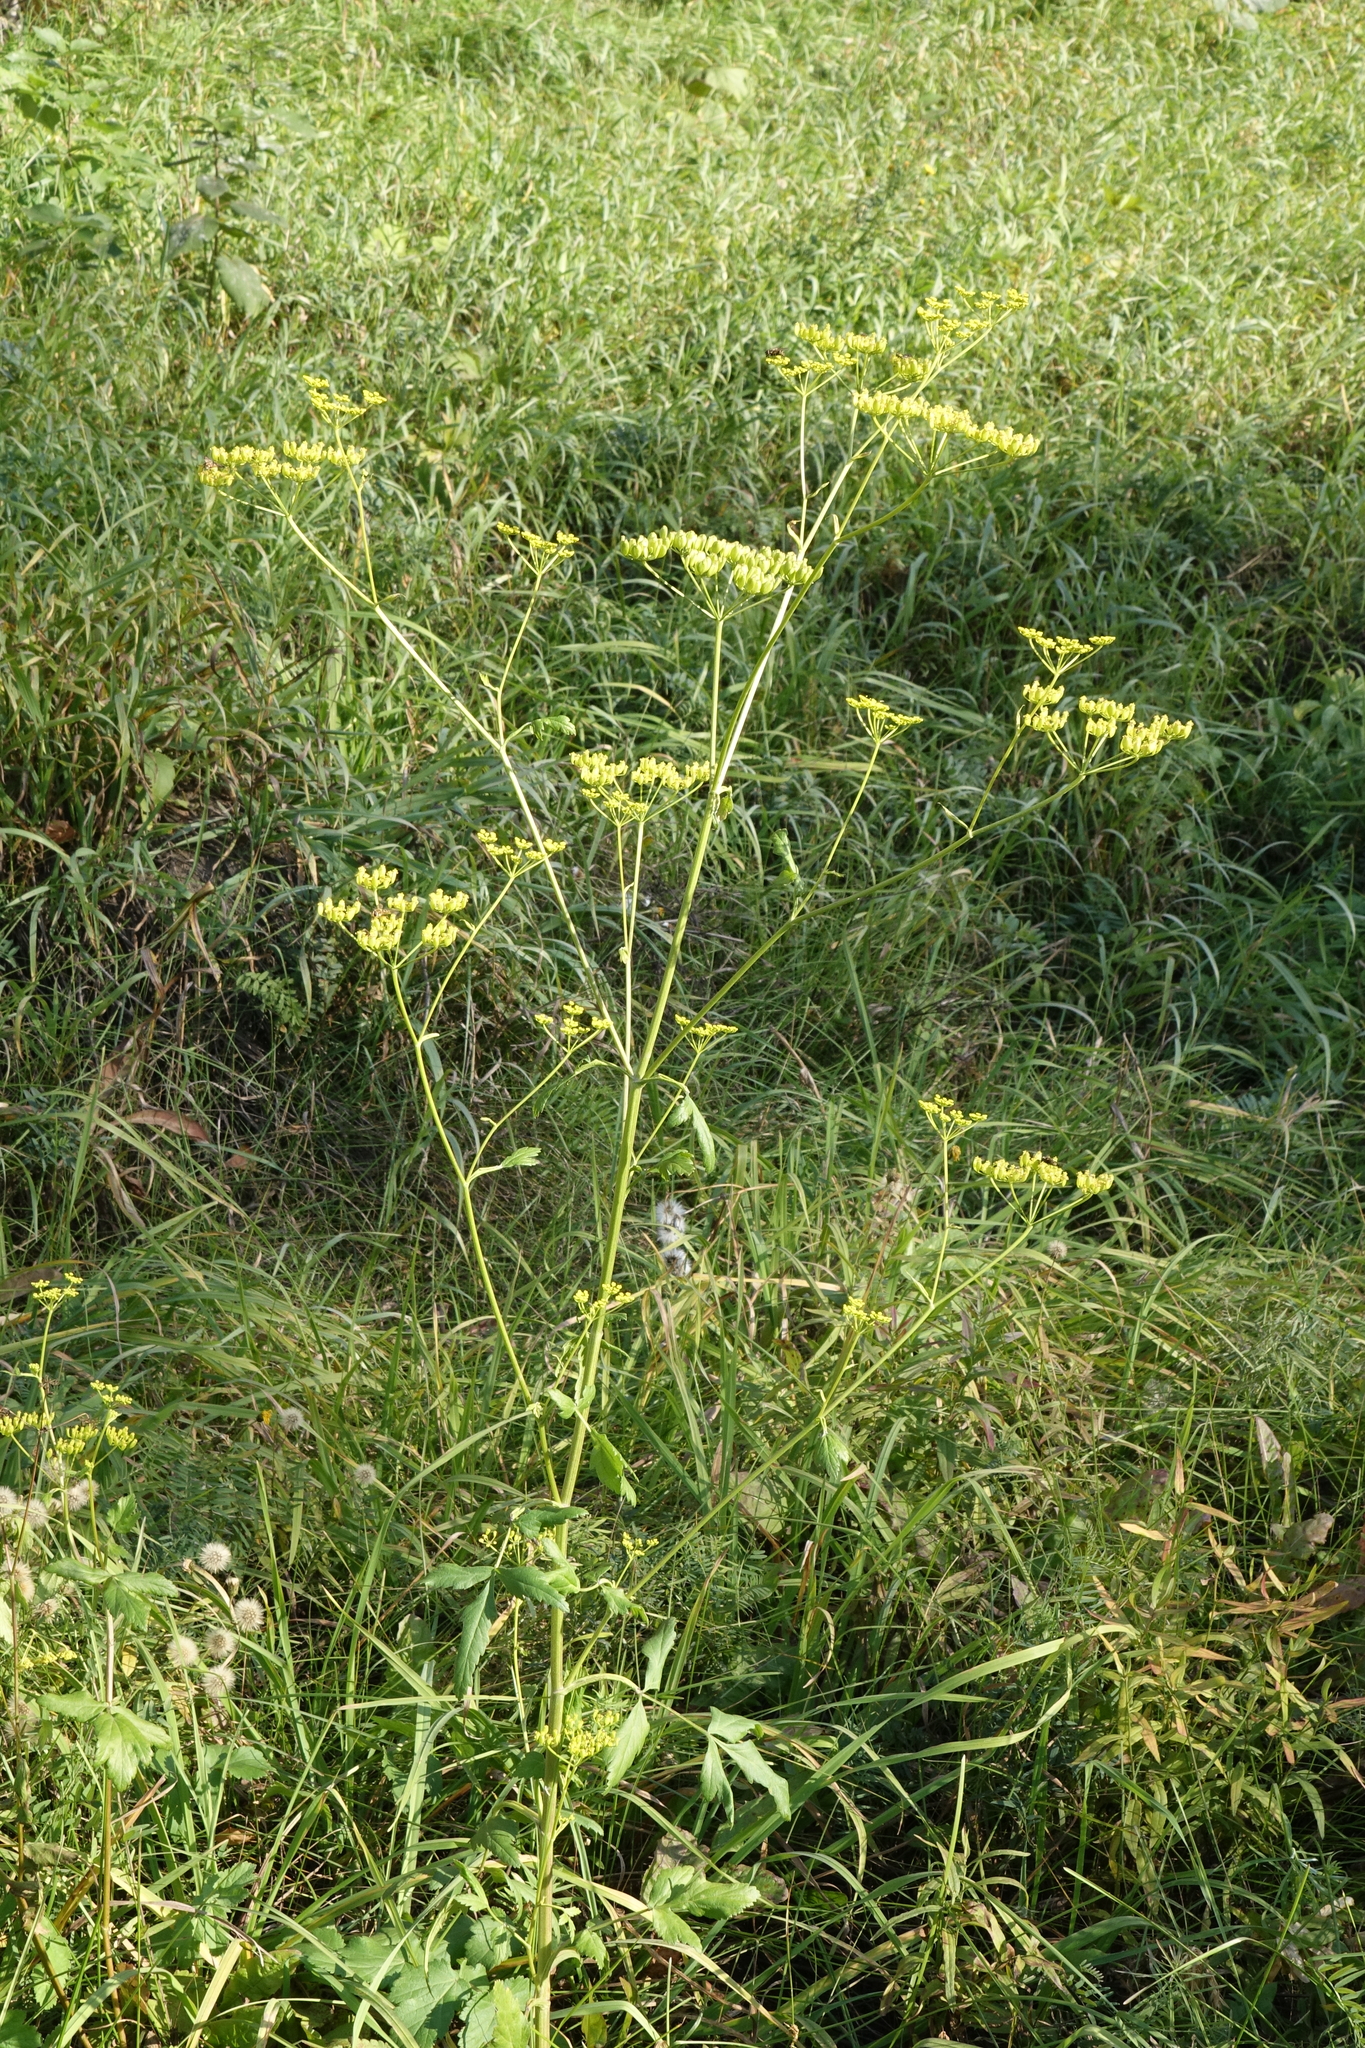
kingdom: Plantae
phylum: Tracheophyta
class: Magnoliopsida
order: Apiales
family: Apiaceae
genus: Pastinaca
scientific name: Pastinaca sativa
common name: Wild parsnip
